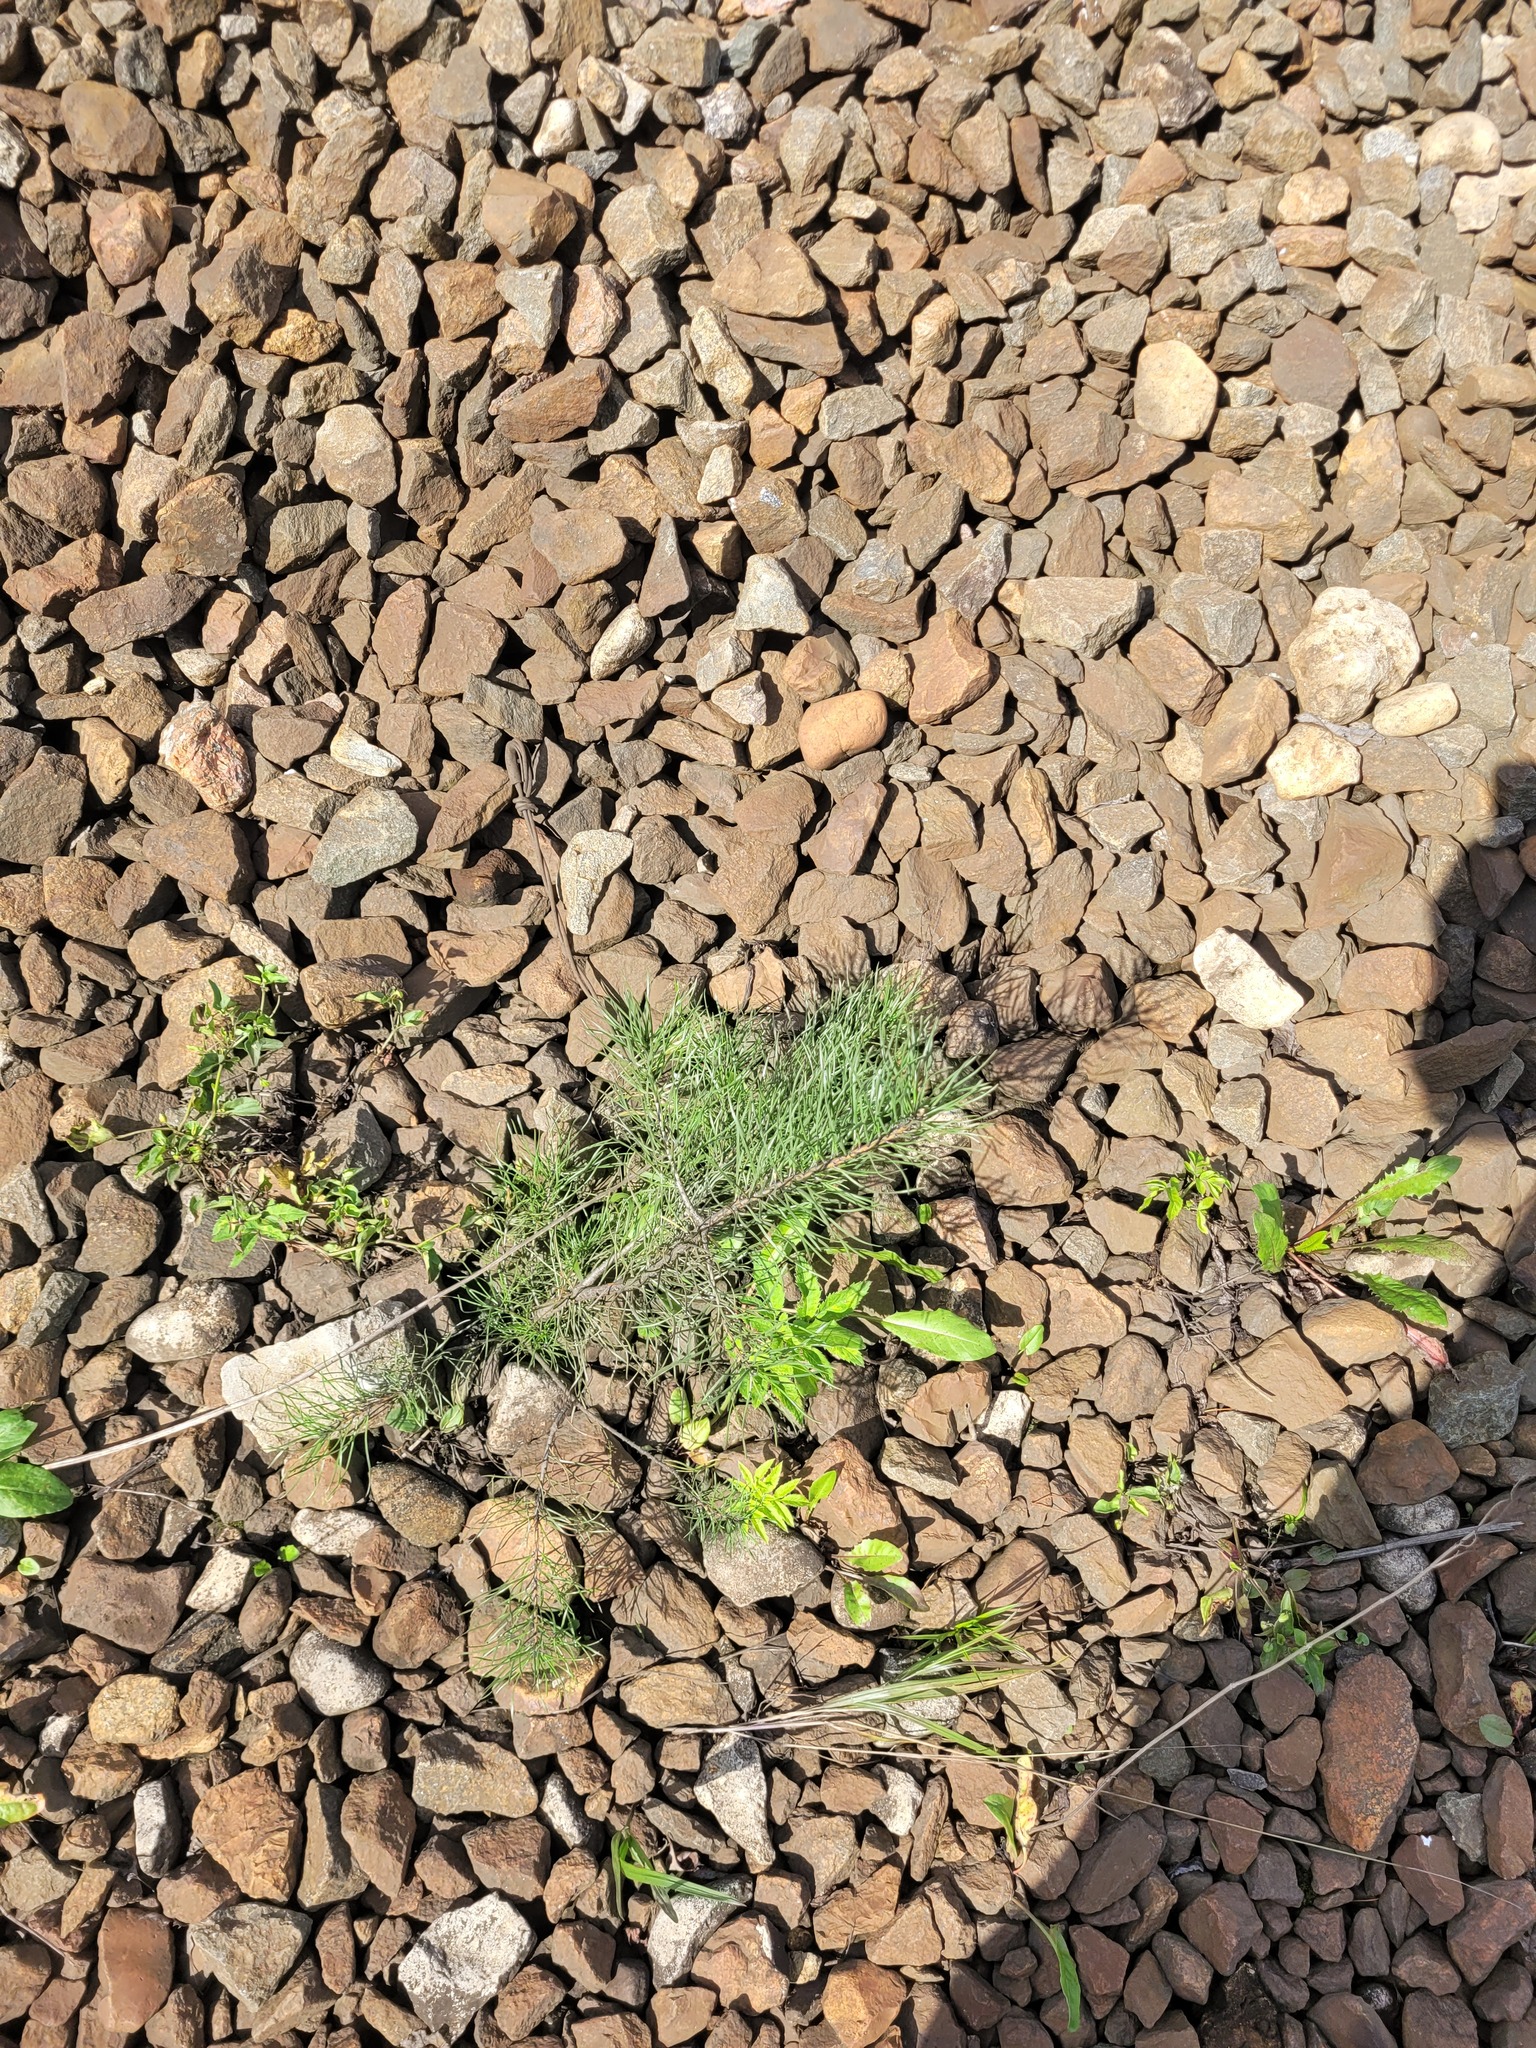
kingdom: Plantae
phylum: Tracheophyta
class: Pinopsida
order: Pinales
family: Pinaceae
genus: Pinus
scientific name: Pinus sylvestris
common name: Scots pine
